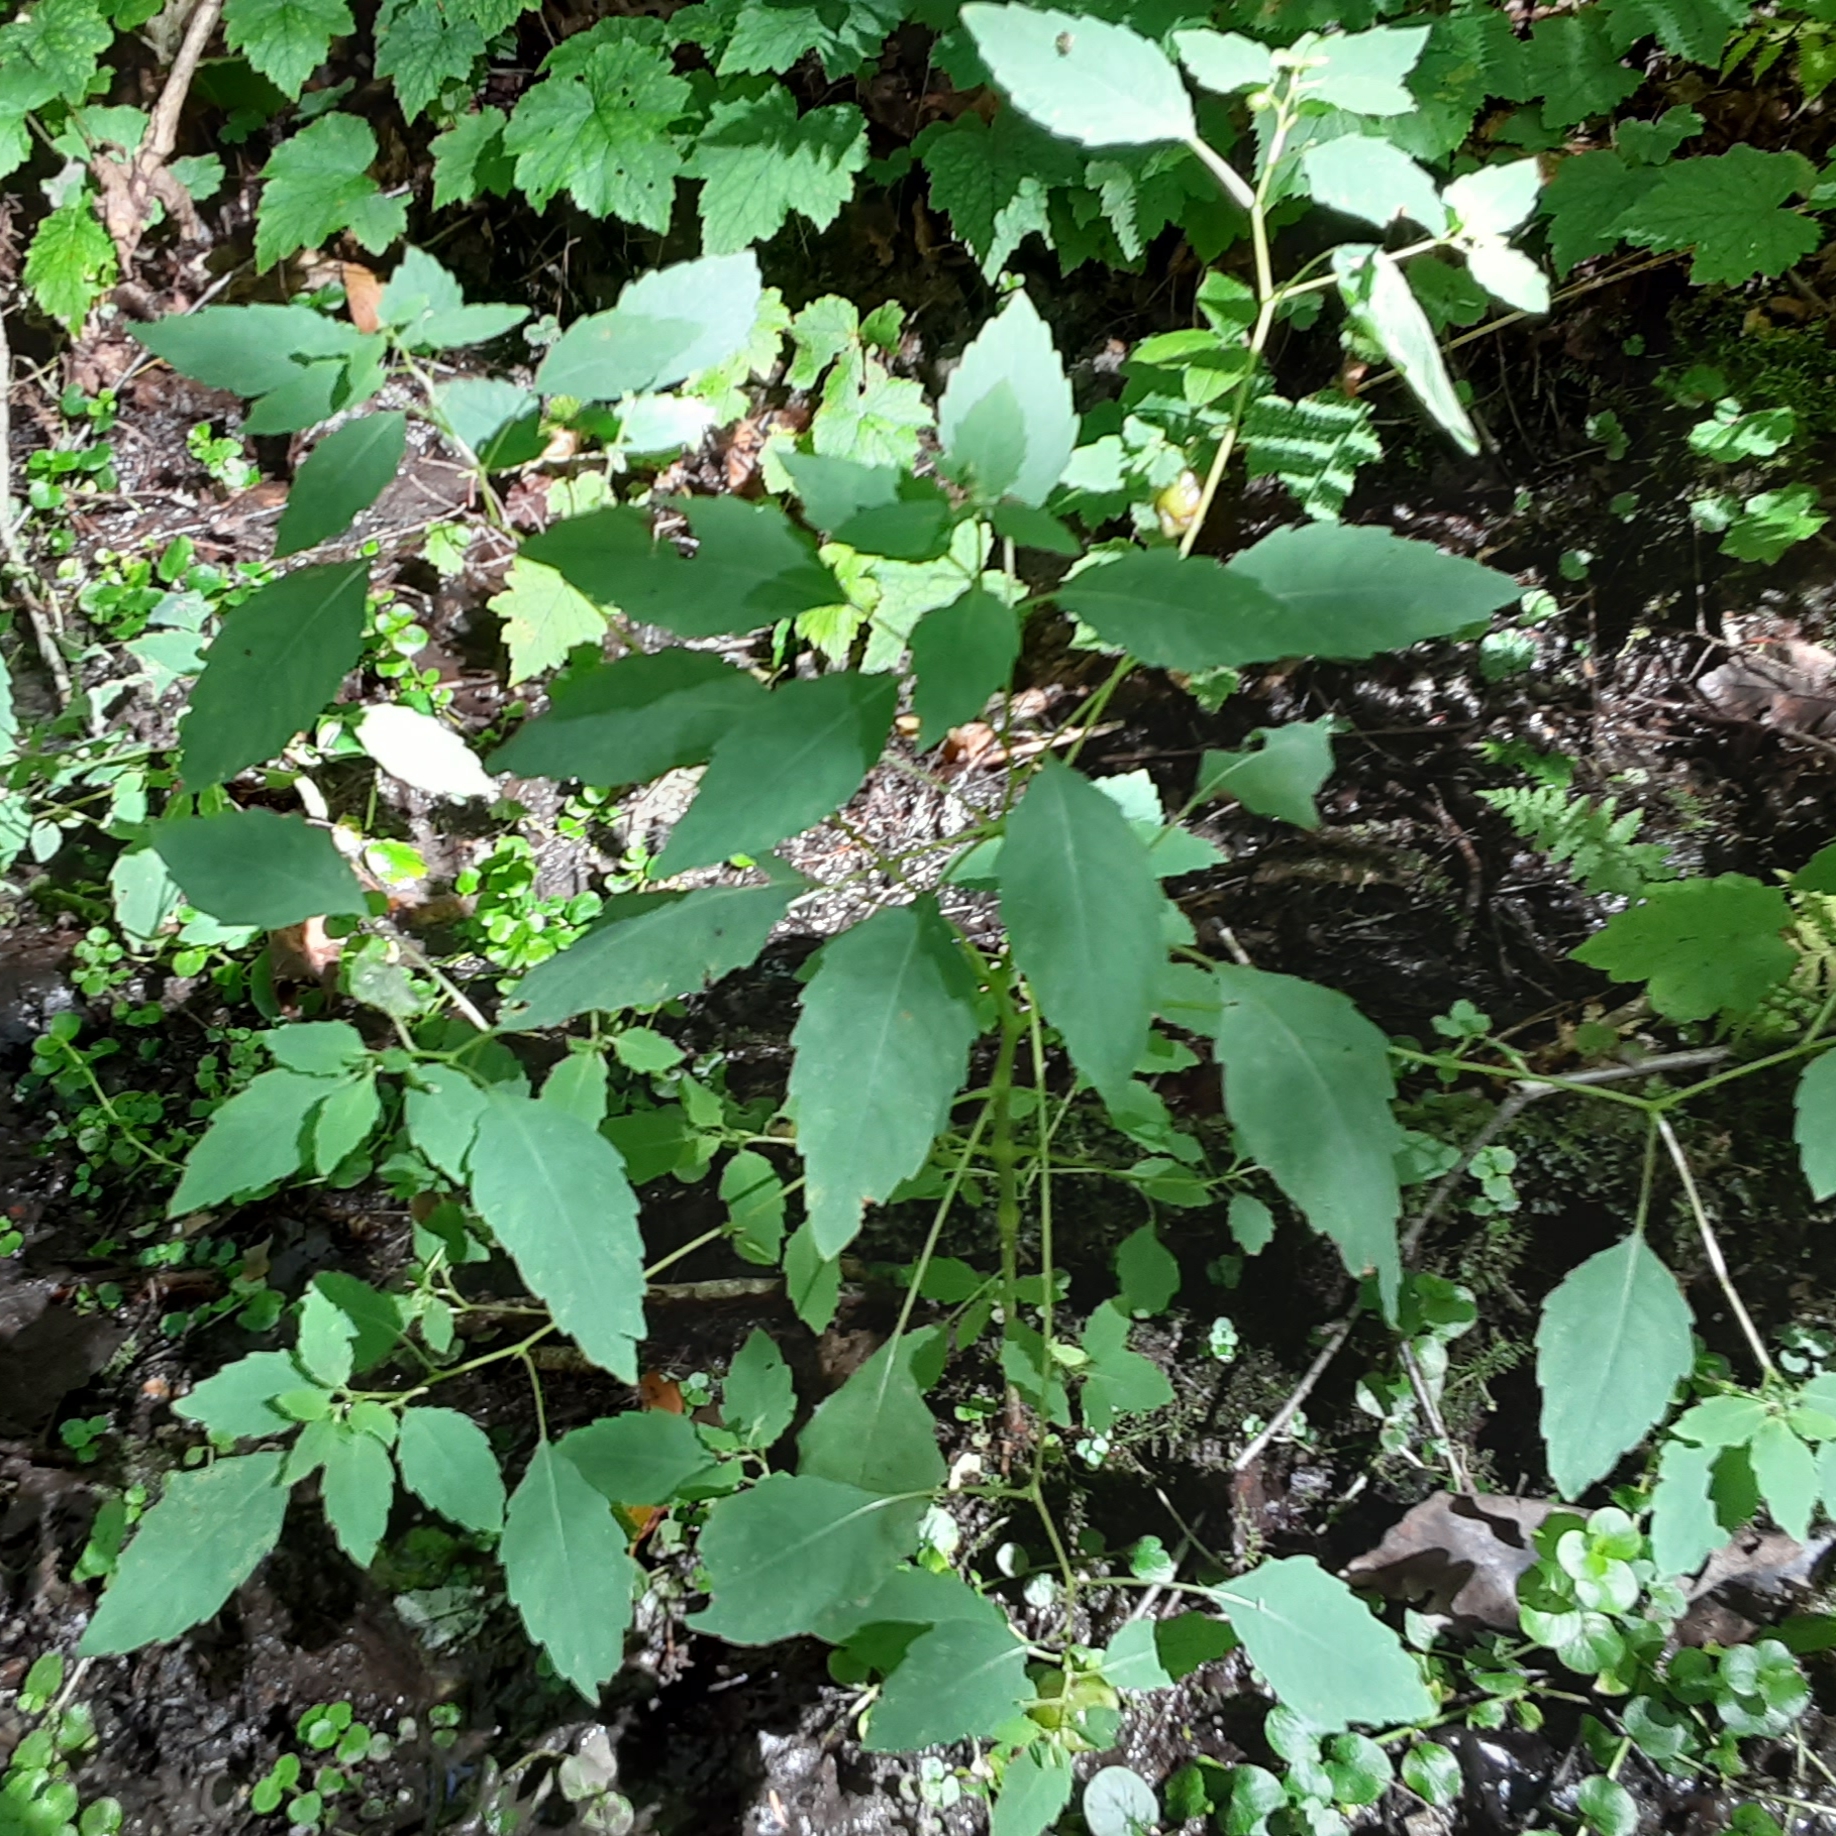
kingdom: Animalia
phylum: Arthropoda
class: Insecta
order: Diptera
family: Cecidomyiidae
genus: Schizomyia
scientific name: Schizomyia impatientis
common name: Jewelweed gall midge
